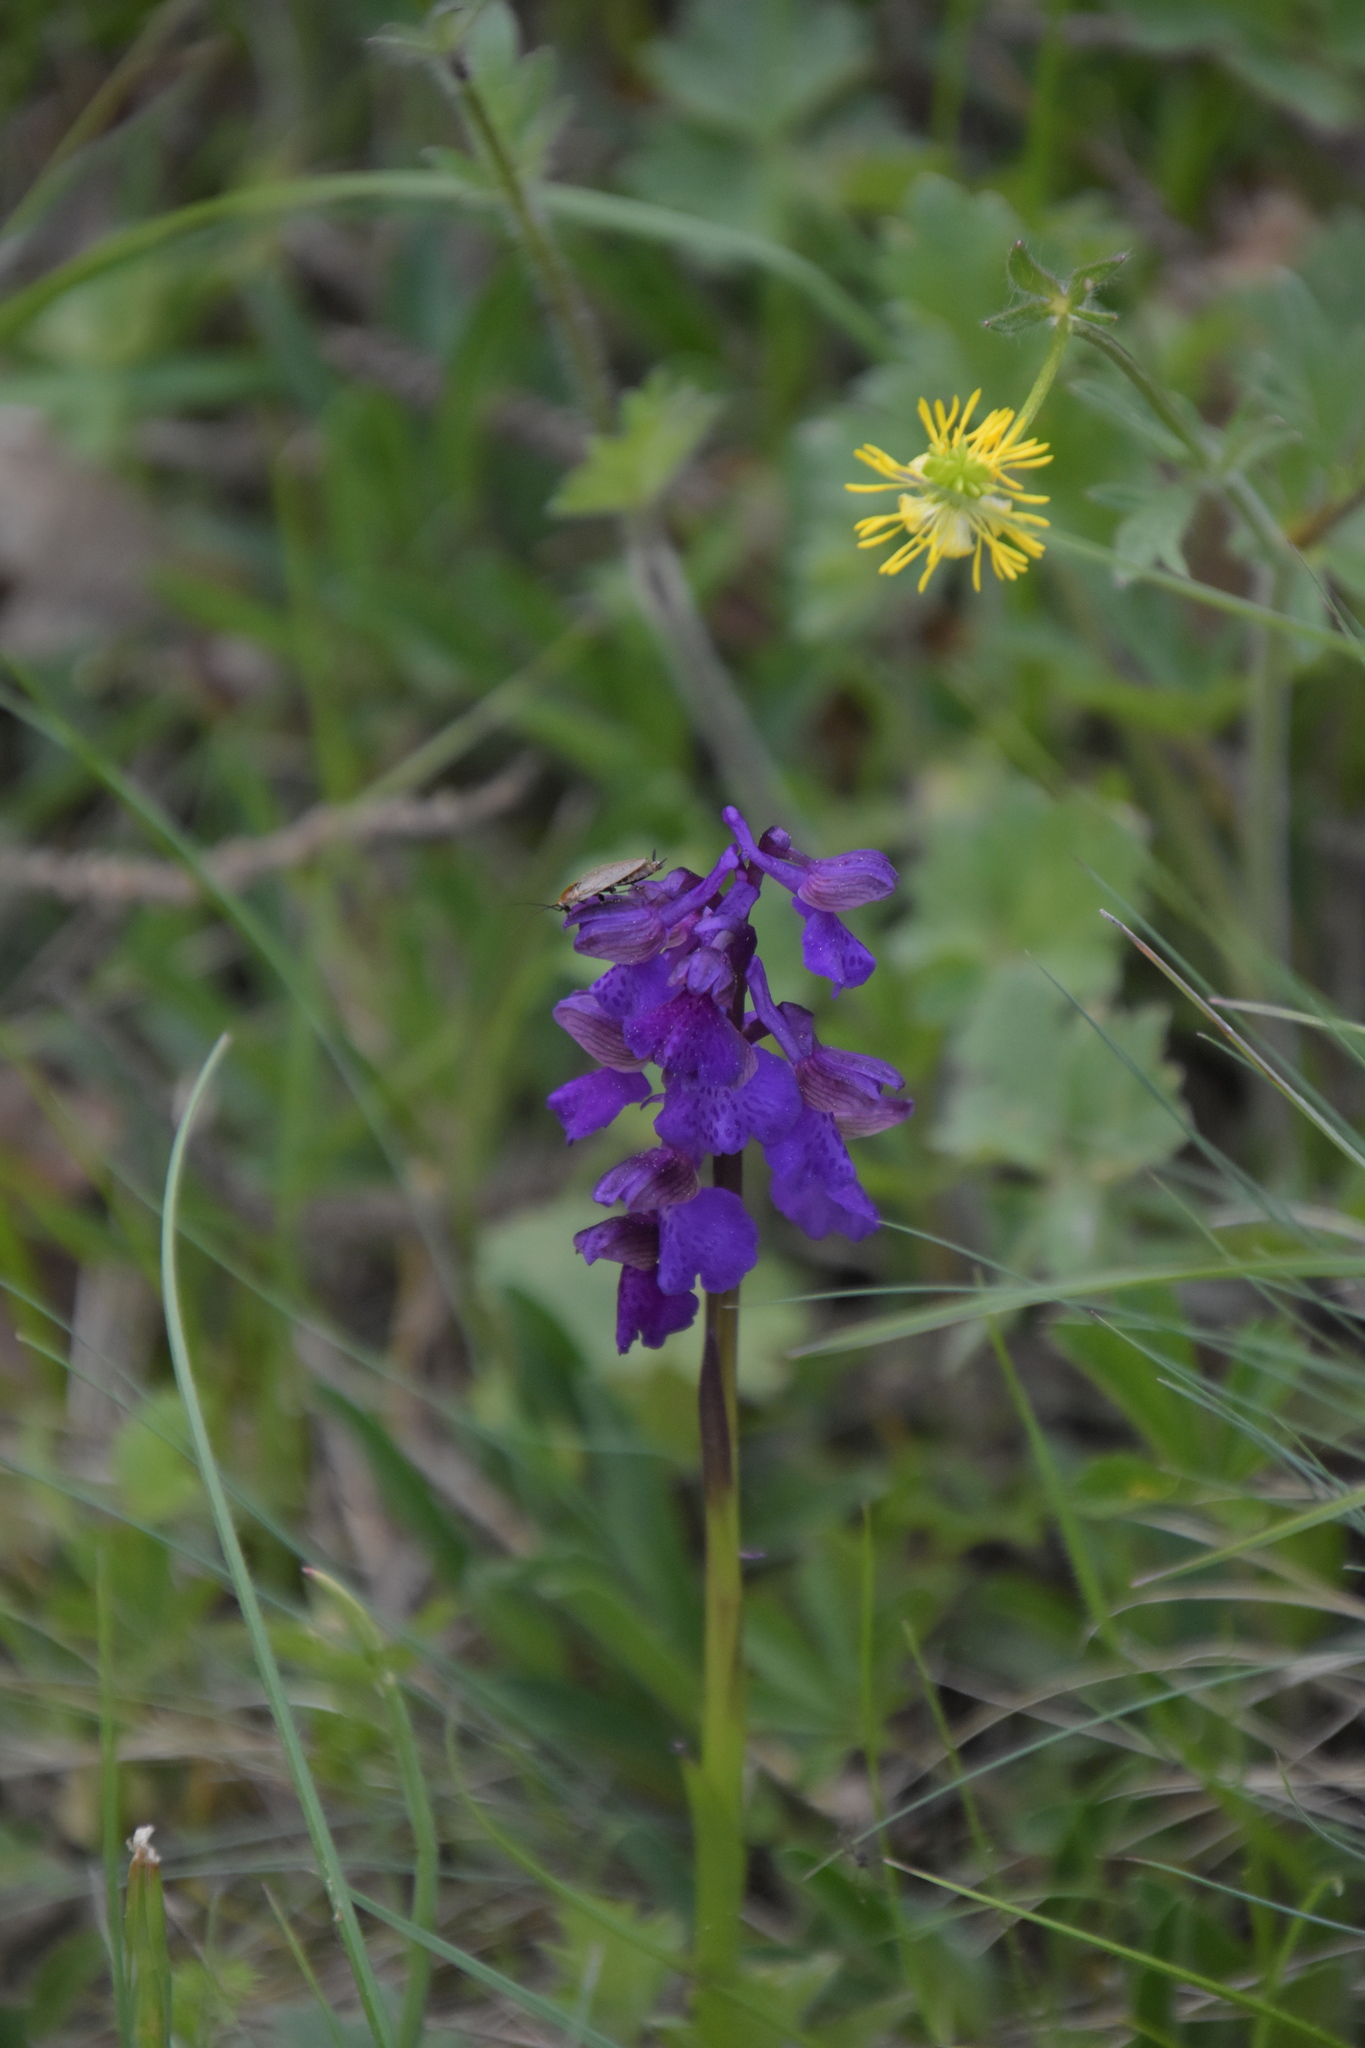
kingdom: Plantae
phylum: Tracheophyta
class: Liliopsida
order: Asparagales
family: Orchidaceae
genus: Anacamptis
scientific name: Anacamptis morio
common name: Green-winged orchid
